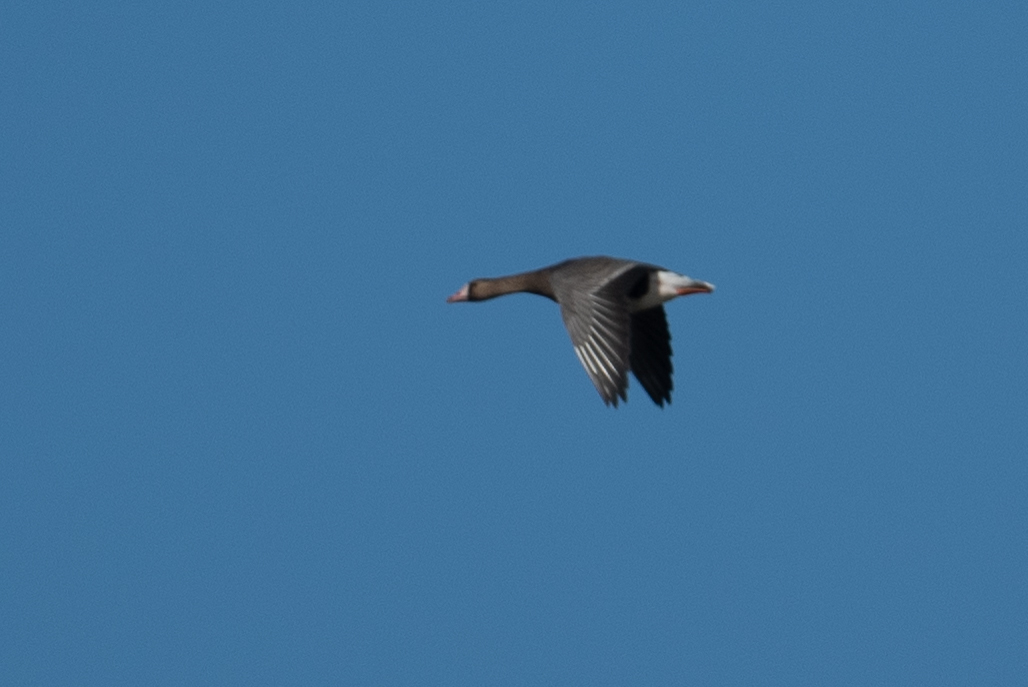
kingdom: Animalia
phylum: Chordata
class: Aves
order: Anseriformes
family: Anatidae
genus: Anser
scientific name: Anser albifrons
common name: Greater white-fronted goose
